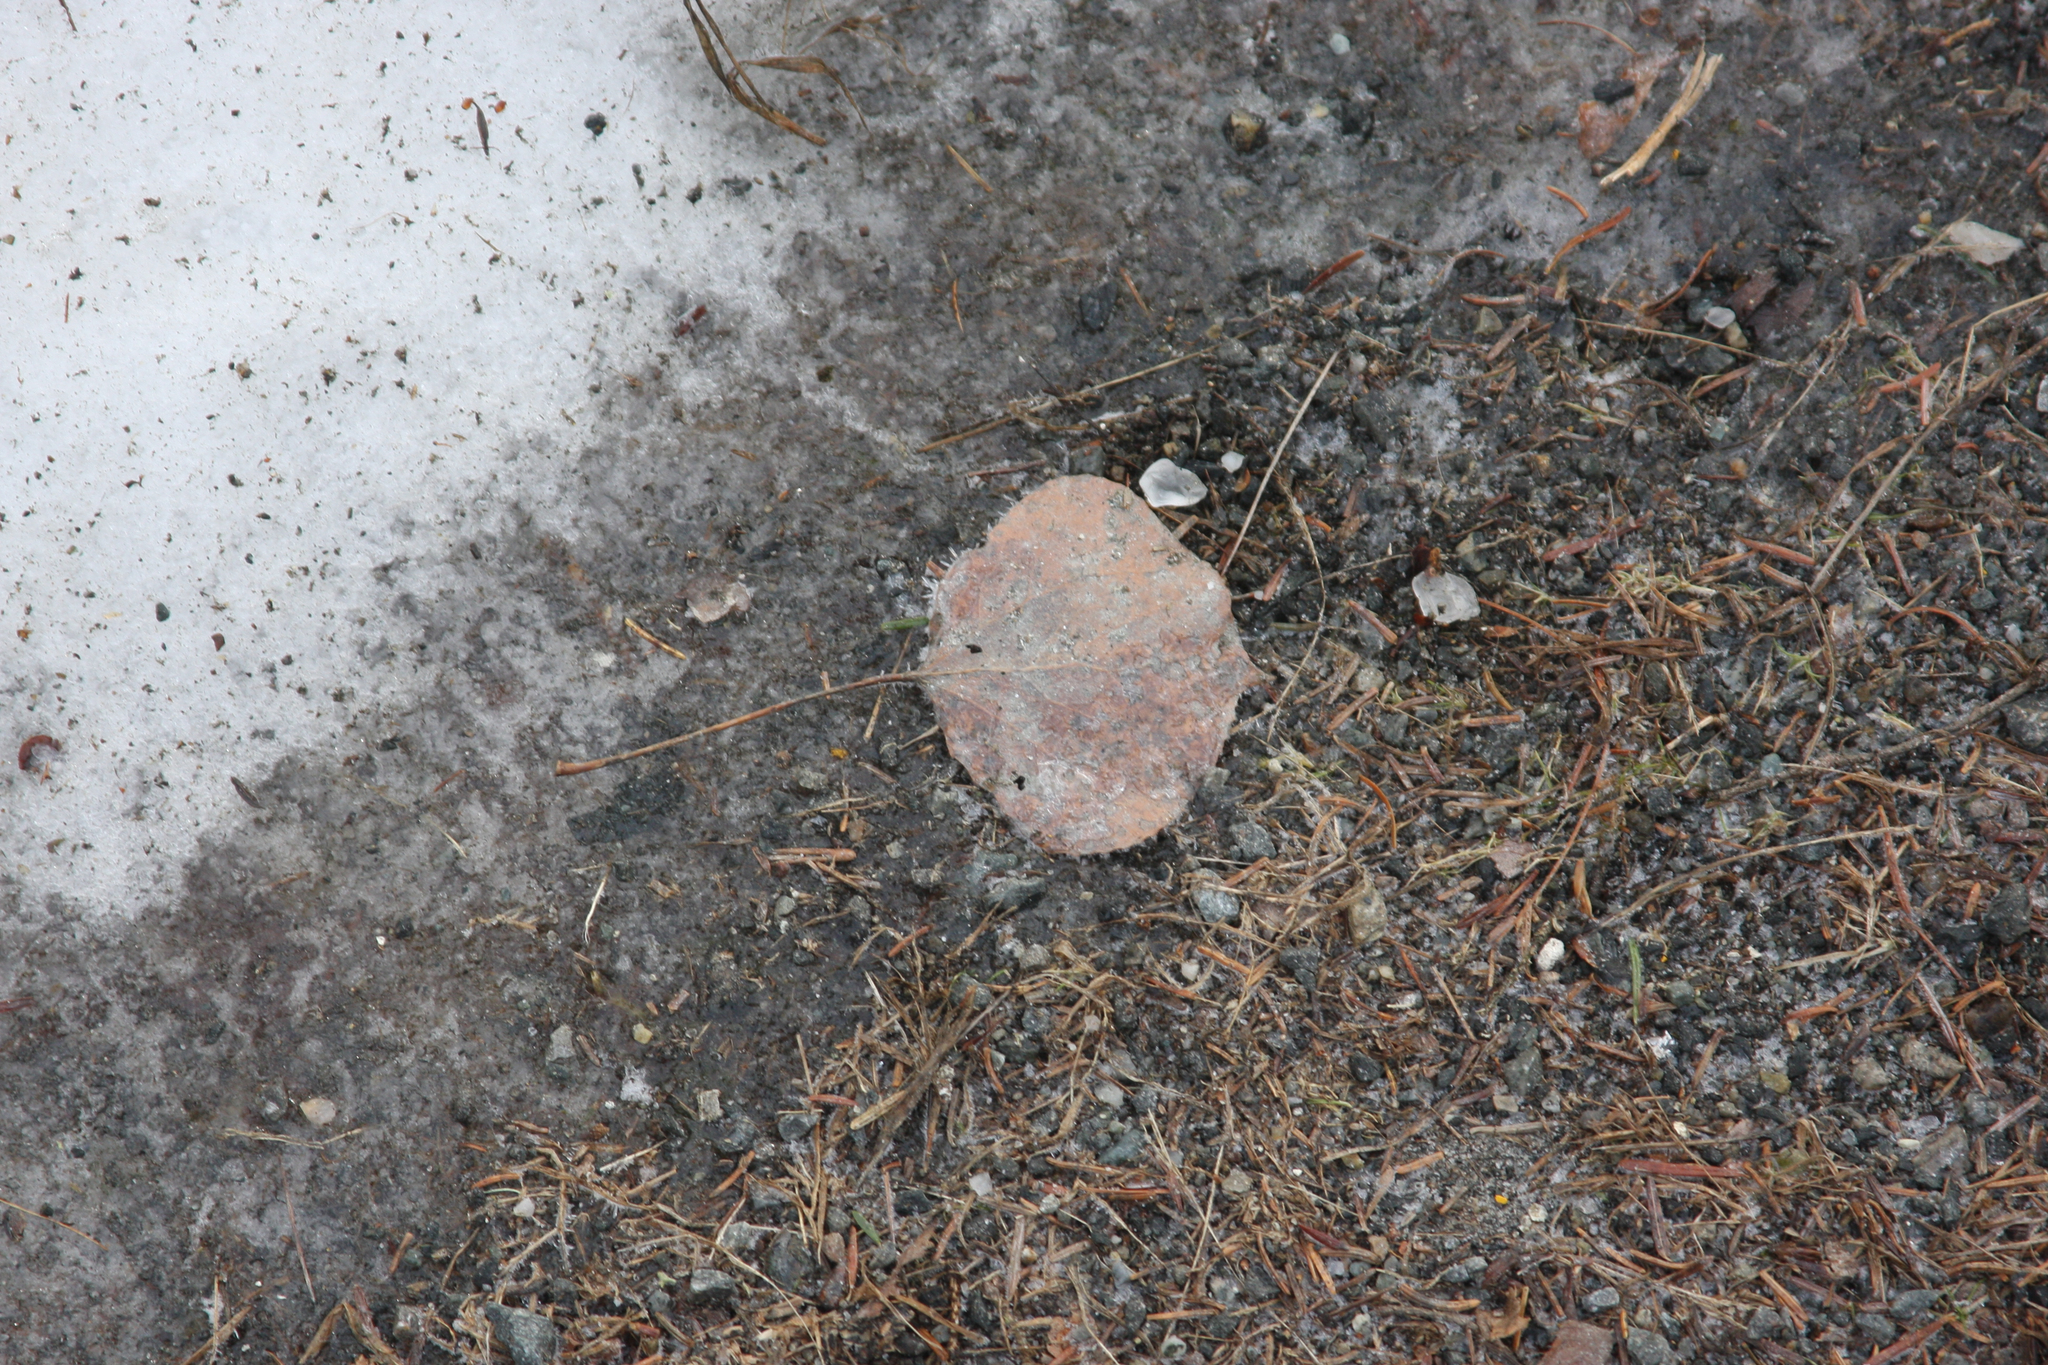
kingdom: Plantae
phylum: Tracheophyta
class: Magnoliopsida
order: Malpighiales
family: Salicaceae
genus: Populus
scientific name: Populus tremuloides
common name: Quaking aspen
